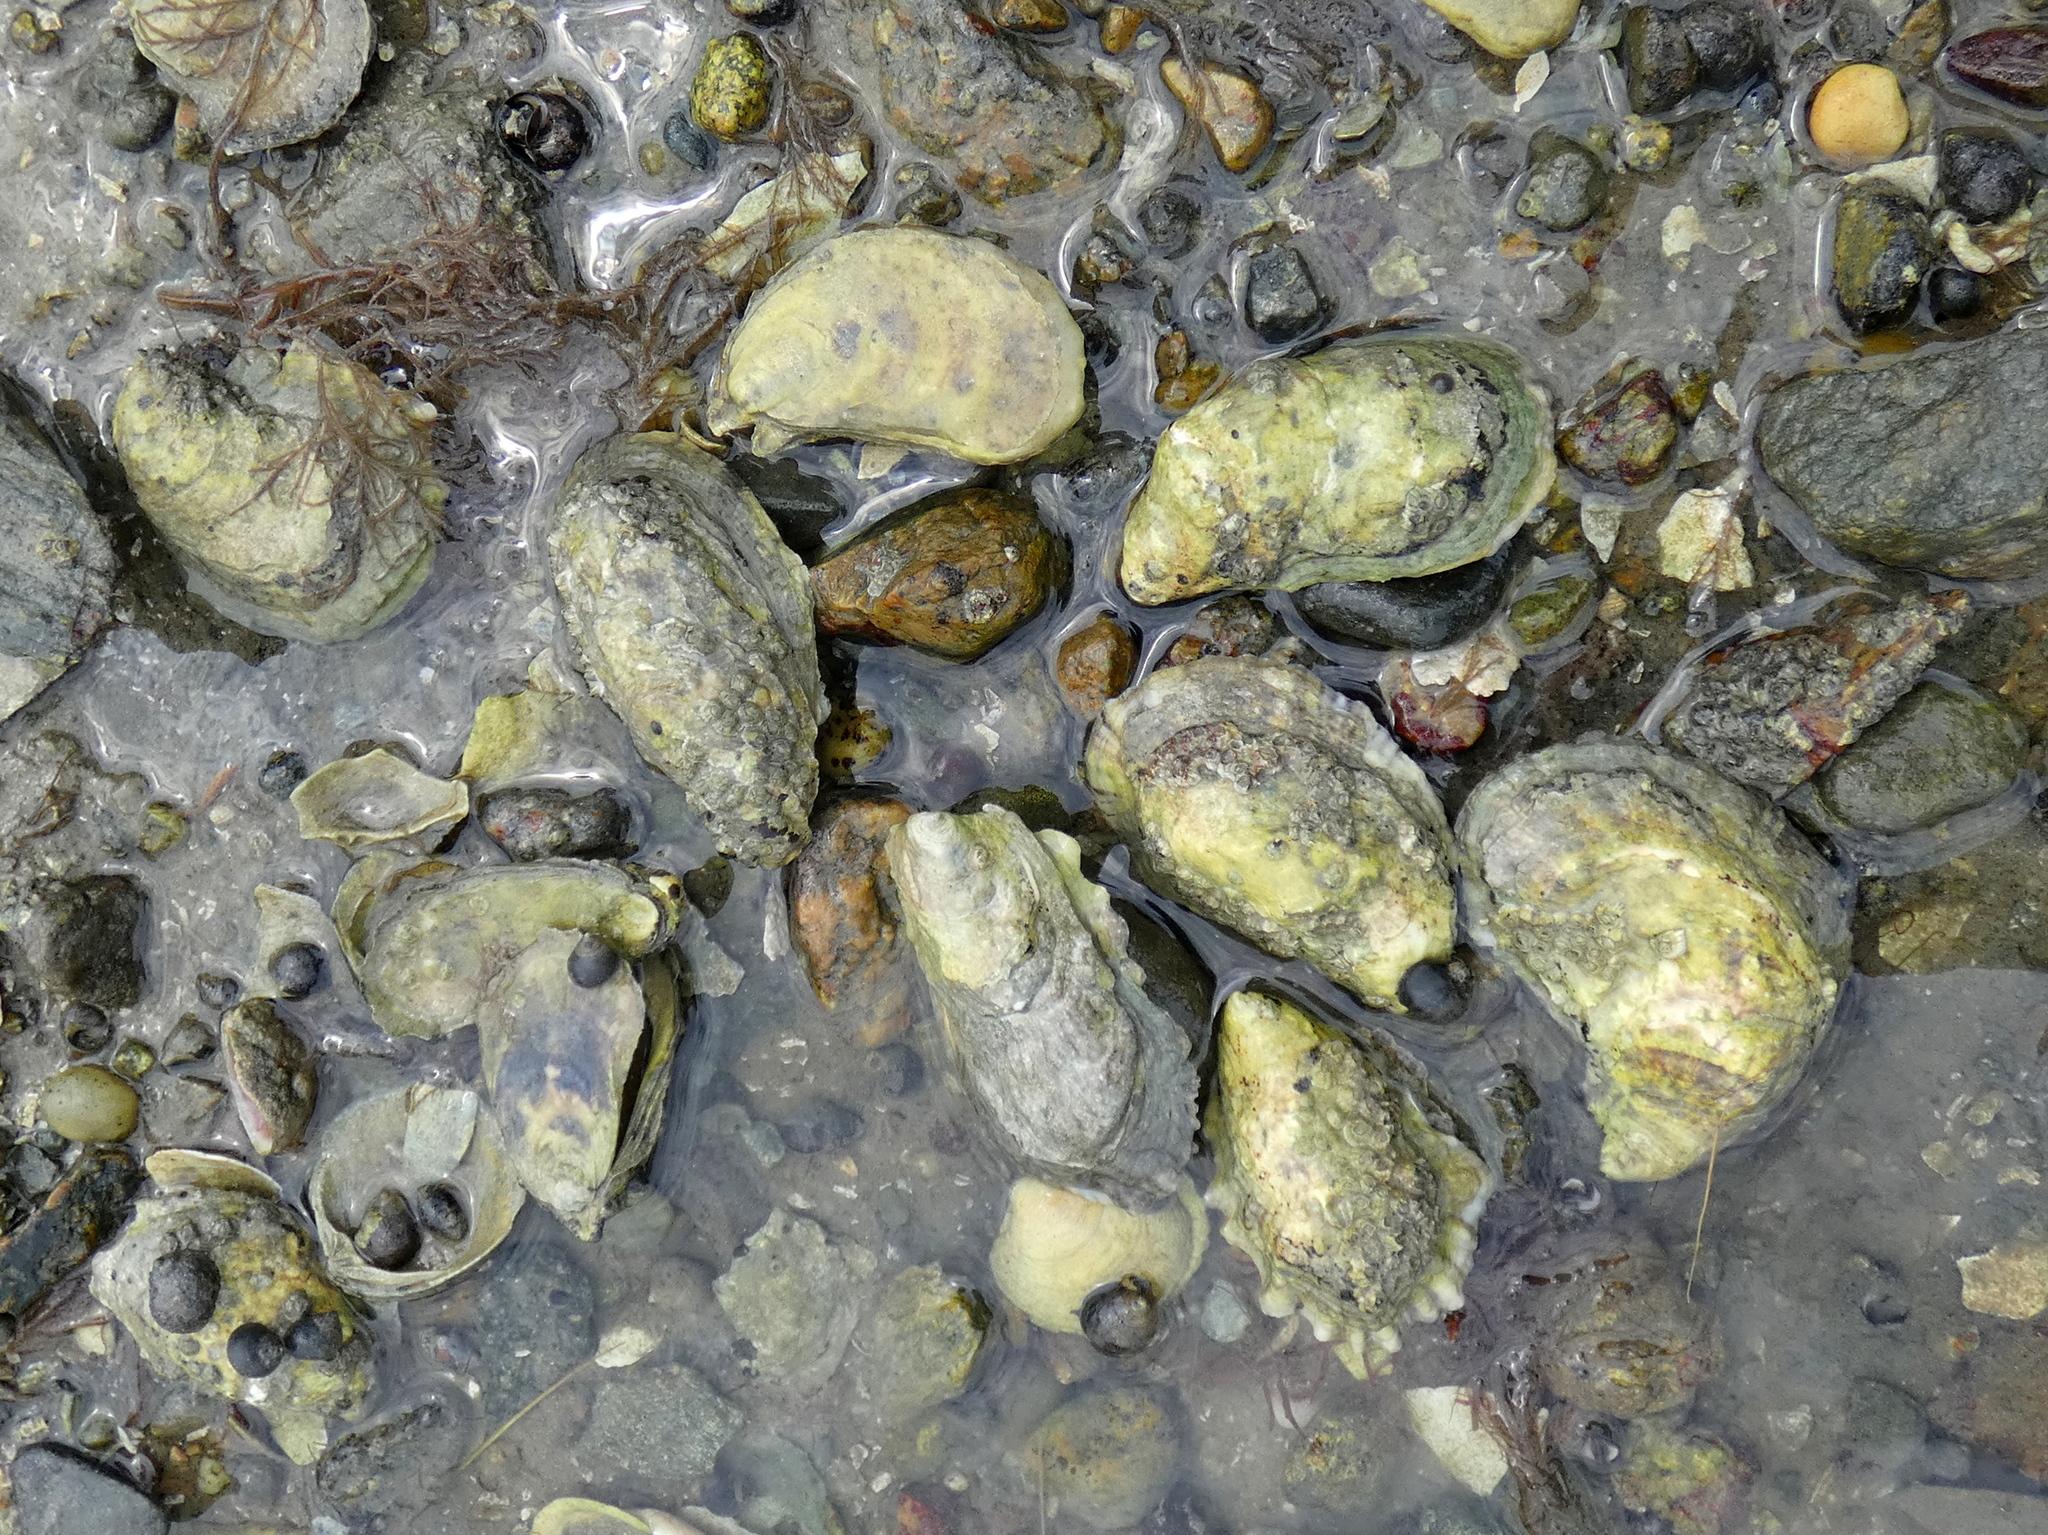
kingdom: Animalia
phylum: Mollusca
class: Bivalvia
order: Ostreida
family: Ostreidae
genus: Crassostrea
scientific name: Crassostrea virginica
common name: American oyster
